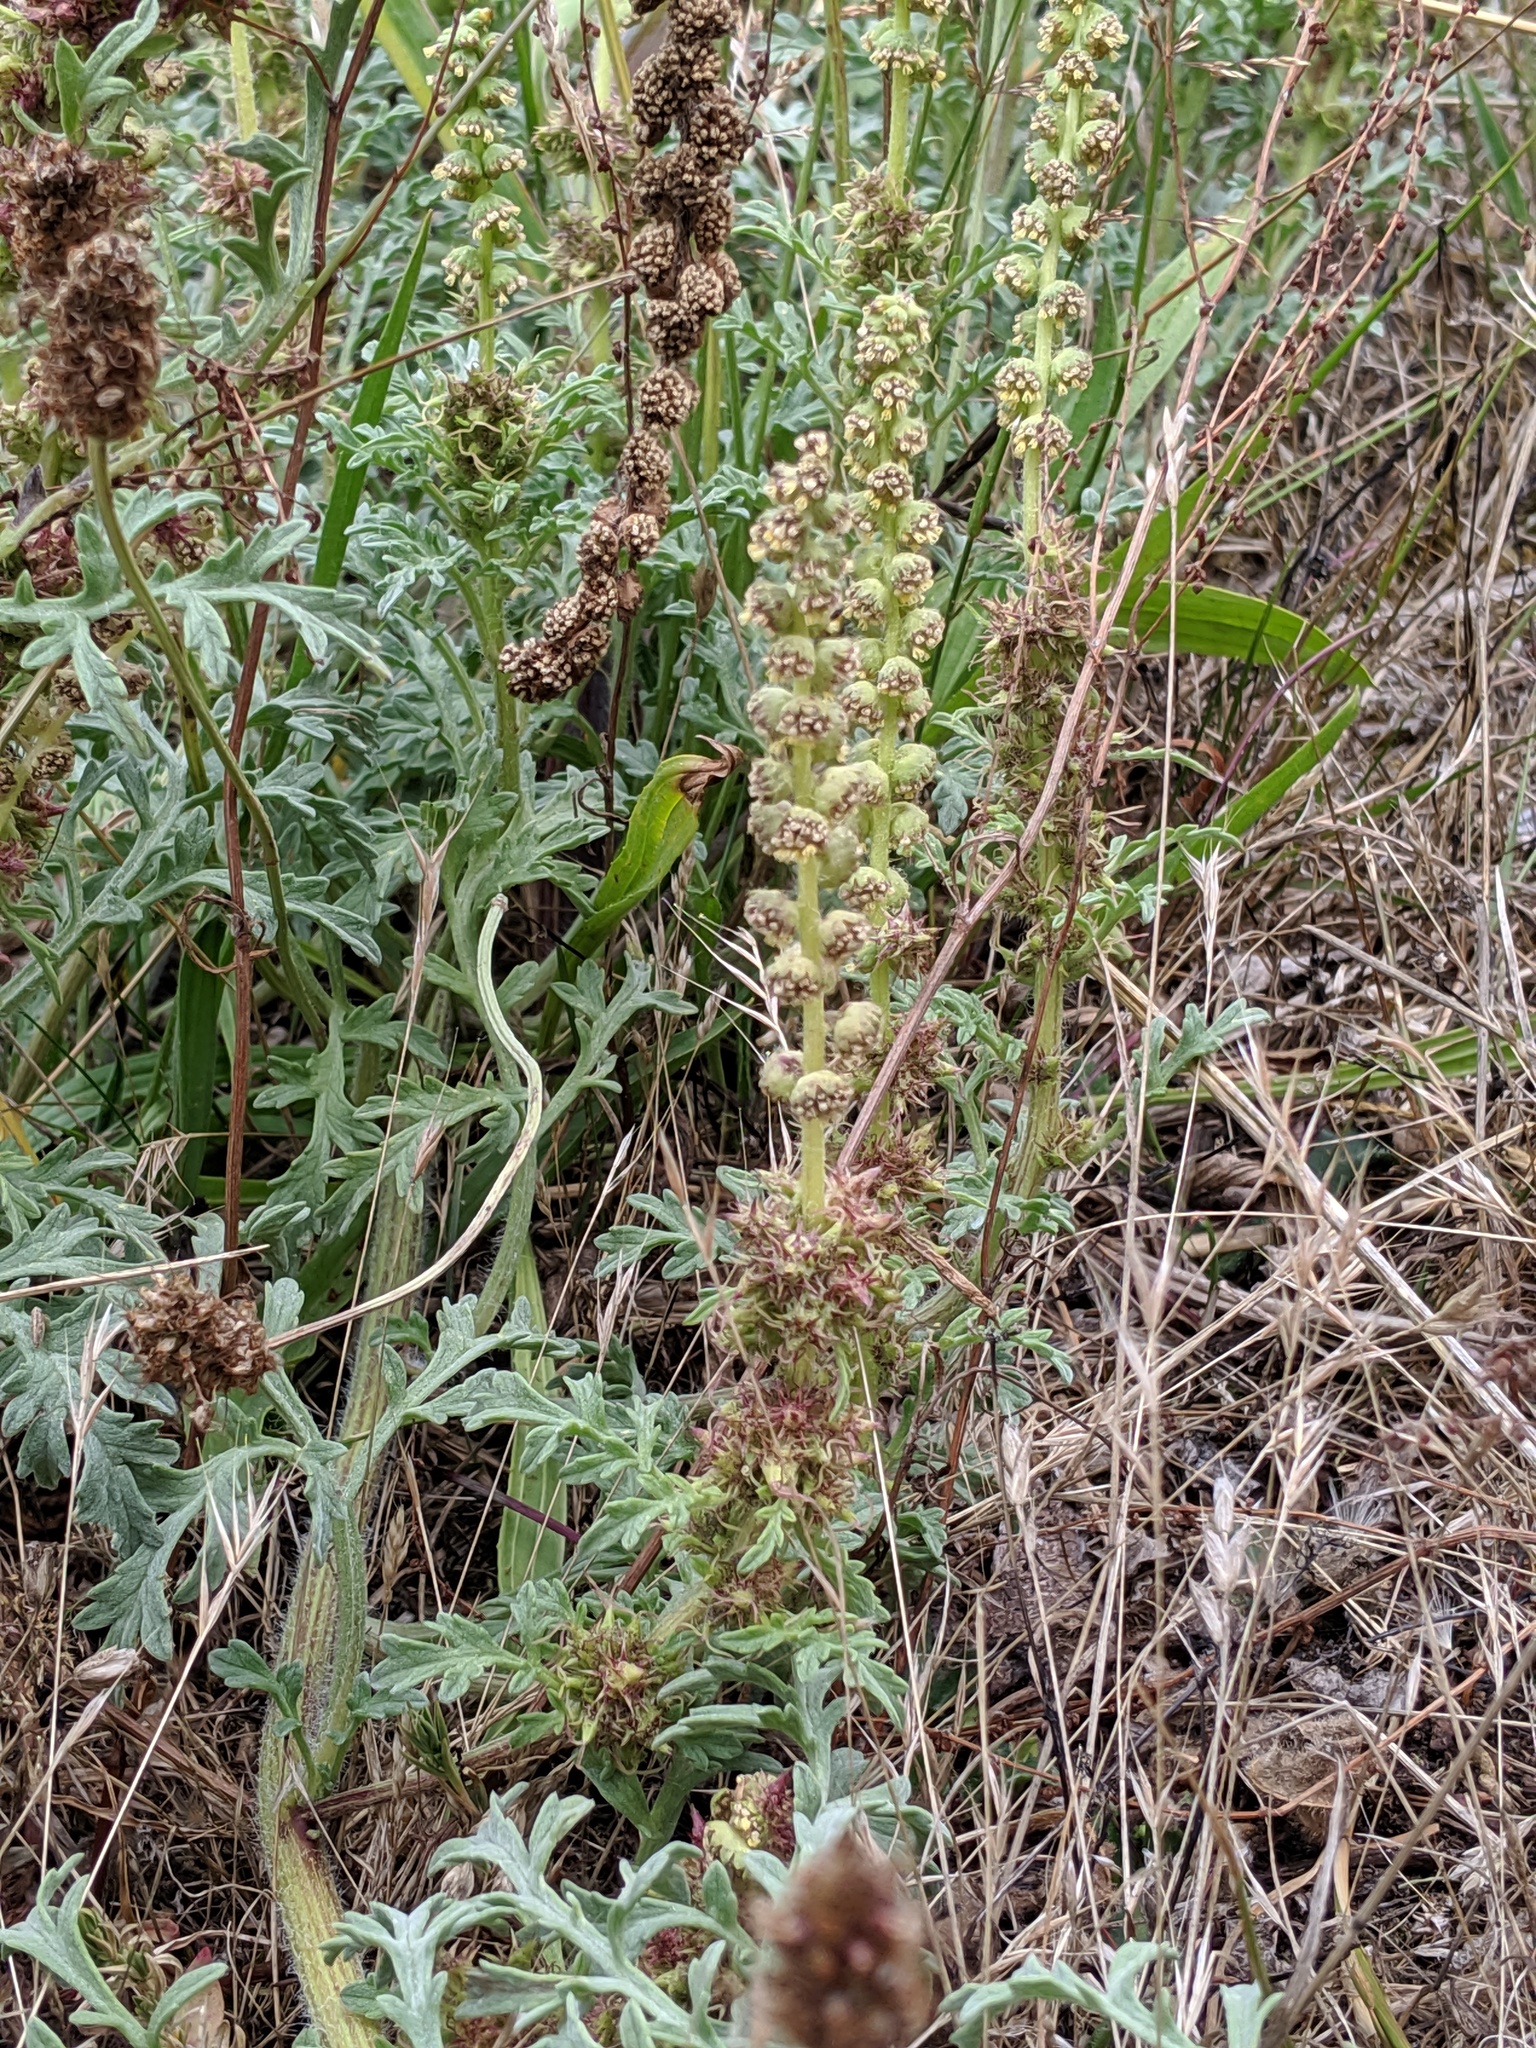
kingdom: Plantae
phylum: Tracheophyta
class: Magnoliopsida
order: Asterales
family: Asteraceae
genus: Ambrosia
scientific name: Ambrosia chamissonis
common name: Beachbur
